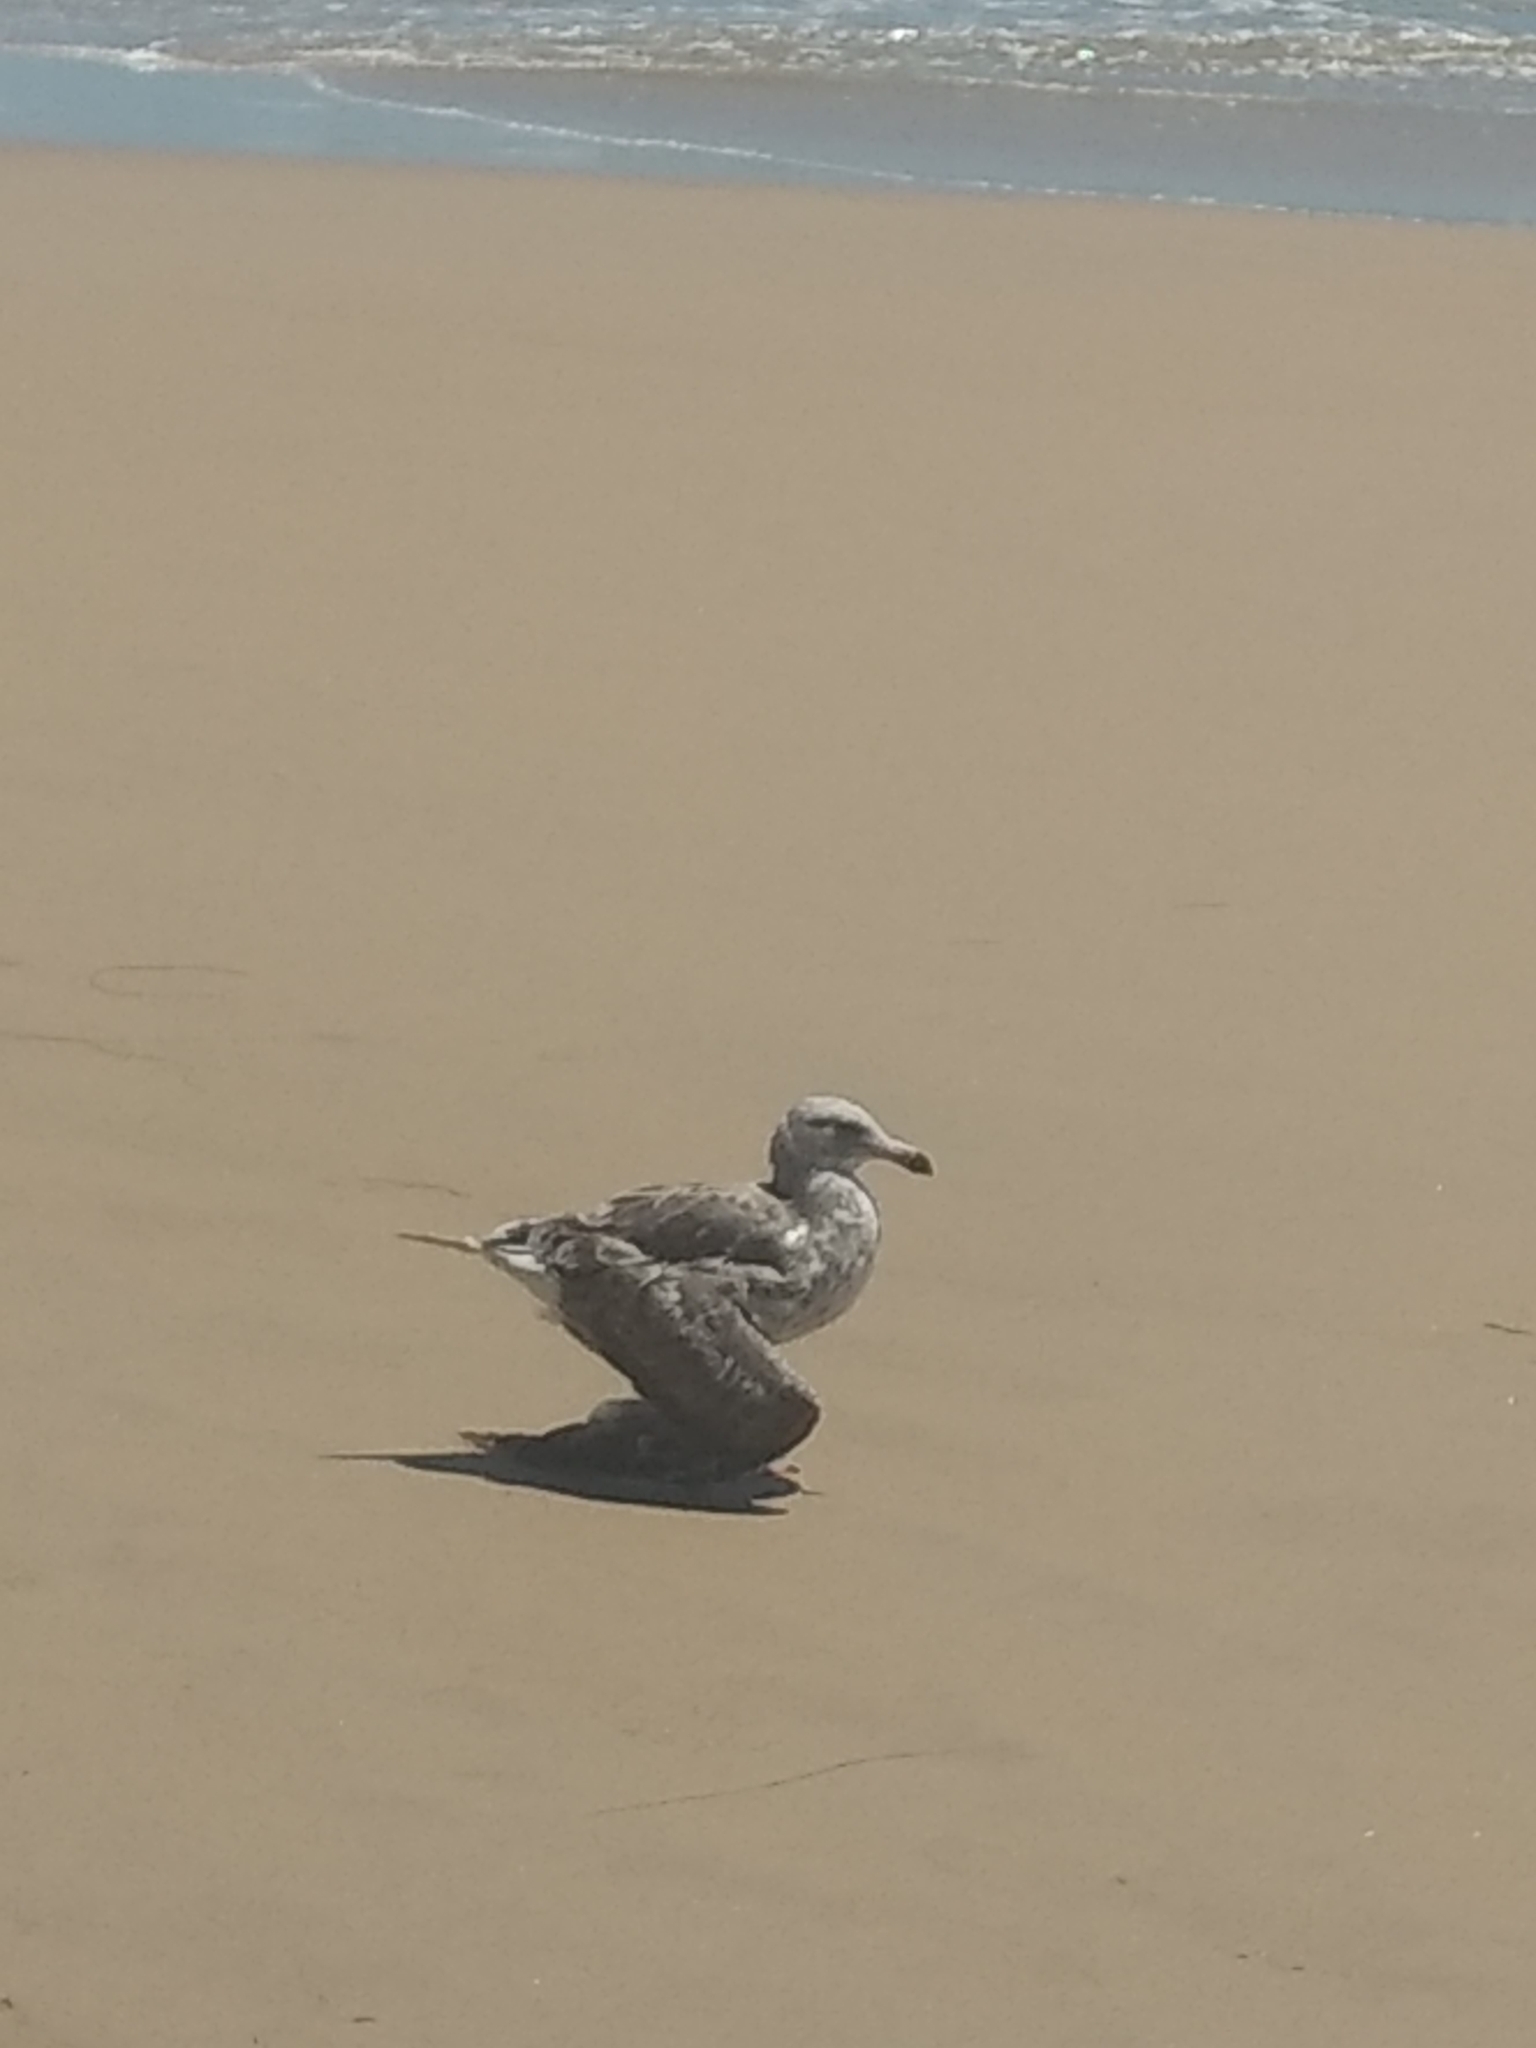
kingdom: Animalia
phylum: Chordata
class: Aves
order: Charadriiformes
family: Laridae
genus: Larus
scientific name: Larus occidentalis
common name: Western gull
